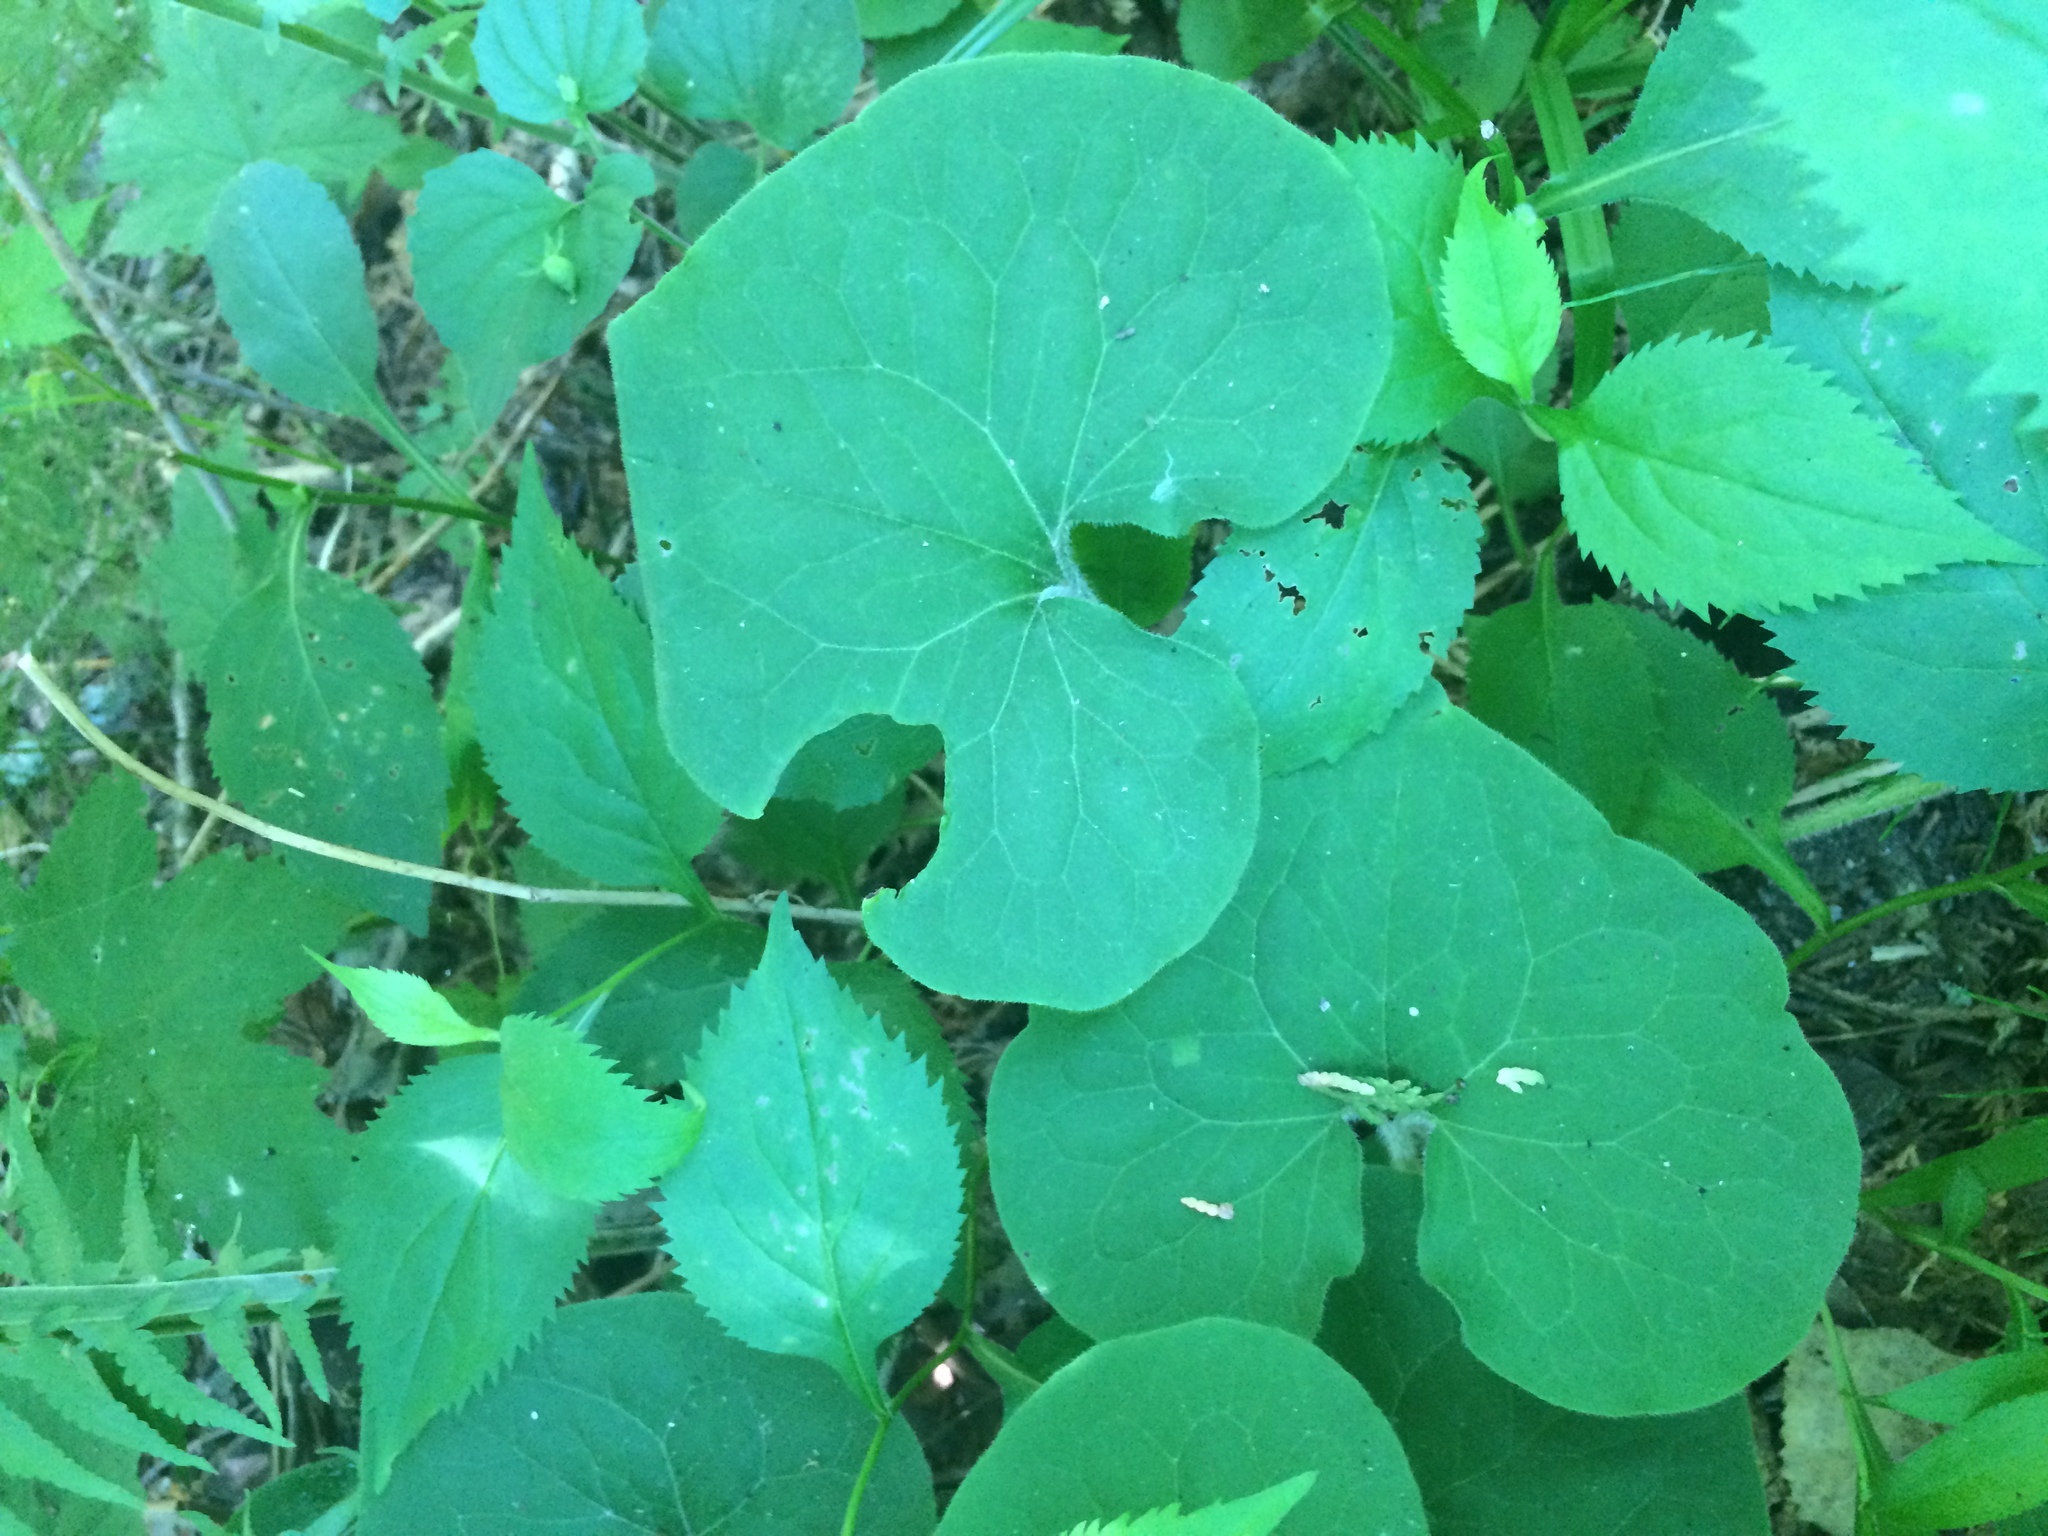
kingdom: Plantae
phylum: Tracheophyta
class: Magnoliopsida
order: Piperales
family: Aristolochiaceae
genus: Asarum
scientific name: Asarum canadense
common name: Wild ginger
